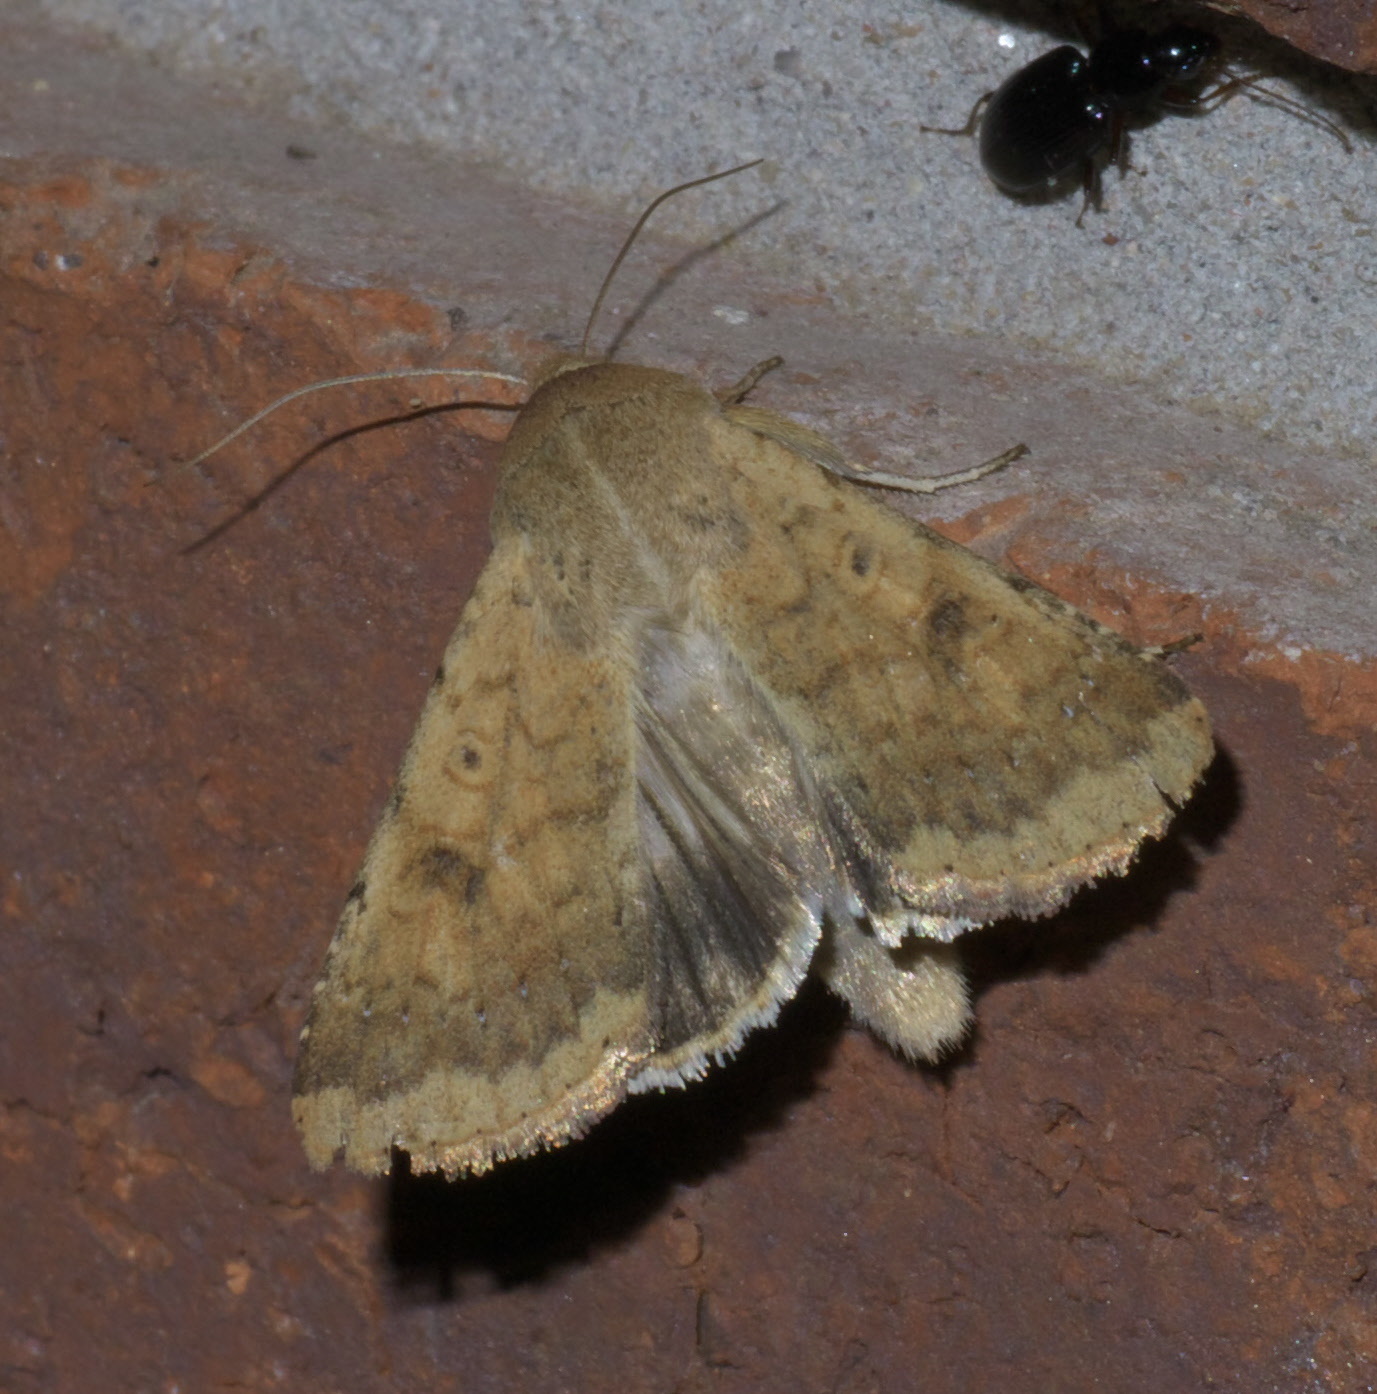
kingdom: Animalia
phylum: Arthropoda
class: Insecta
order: Lepidoptera
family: Noctuidae
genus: Helicoverpa
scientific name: Helicoverpa zea
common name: Bollworm
